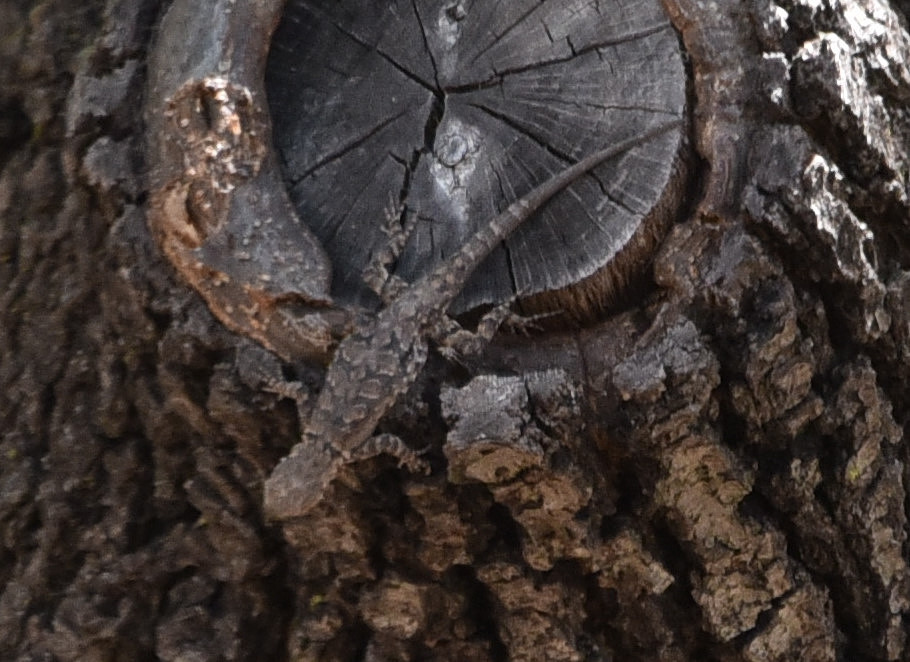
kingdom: Animalia
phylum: Chordata
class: Squamata
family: Phrynosomatidae
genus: Urosaurus
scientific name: Urosaurus ornatus
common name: Ornate tree lizard
